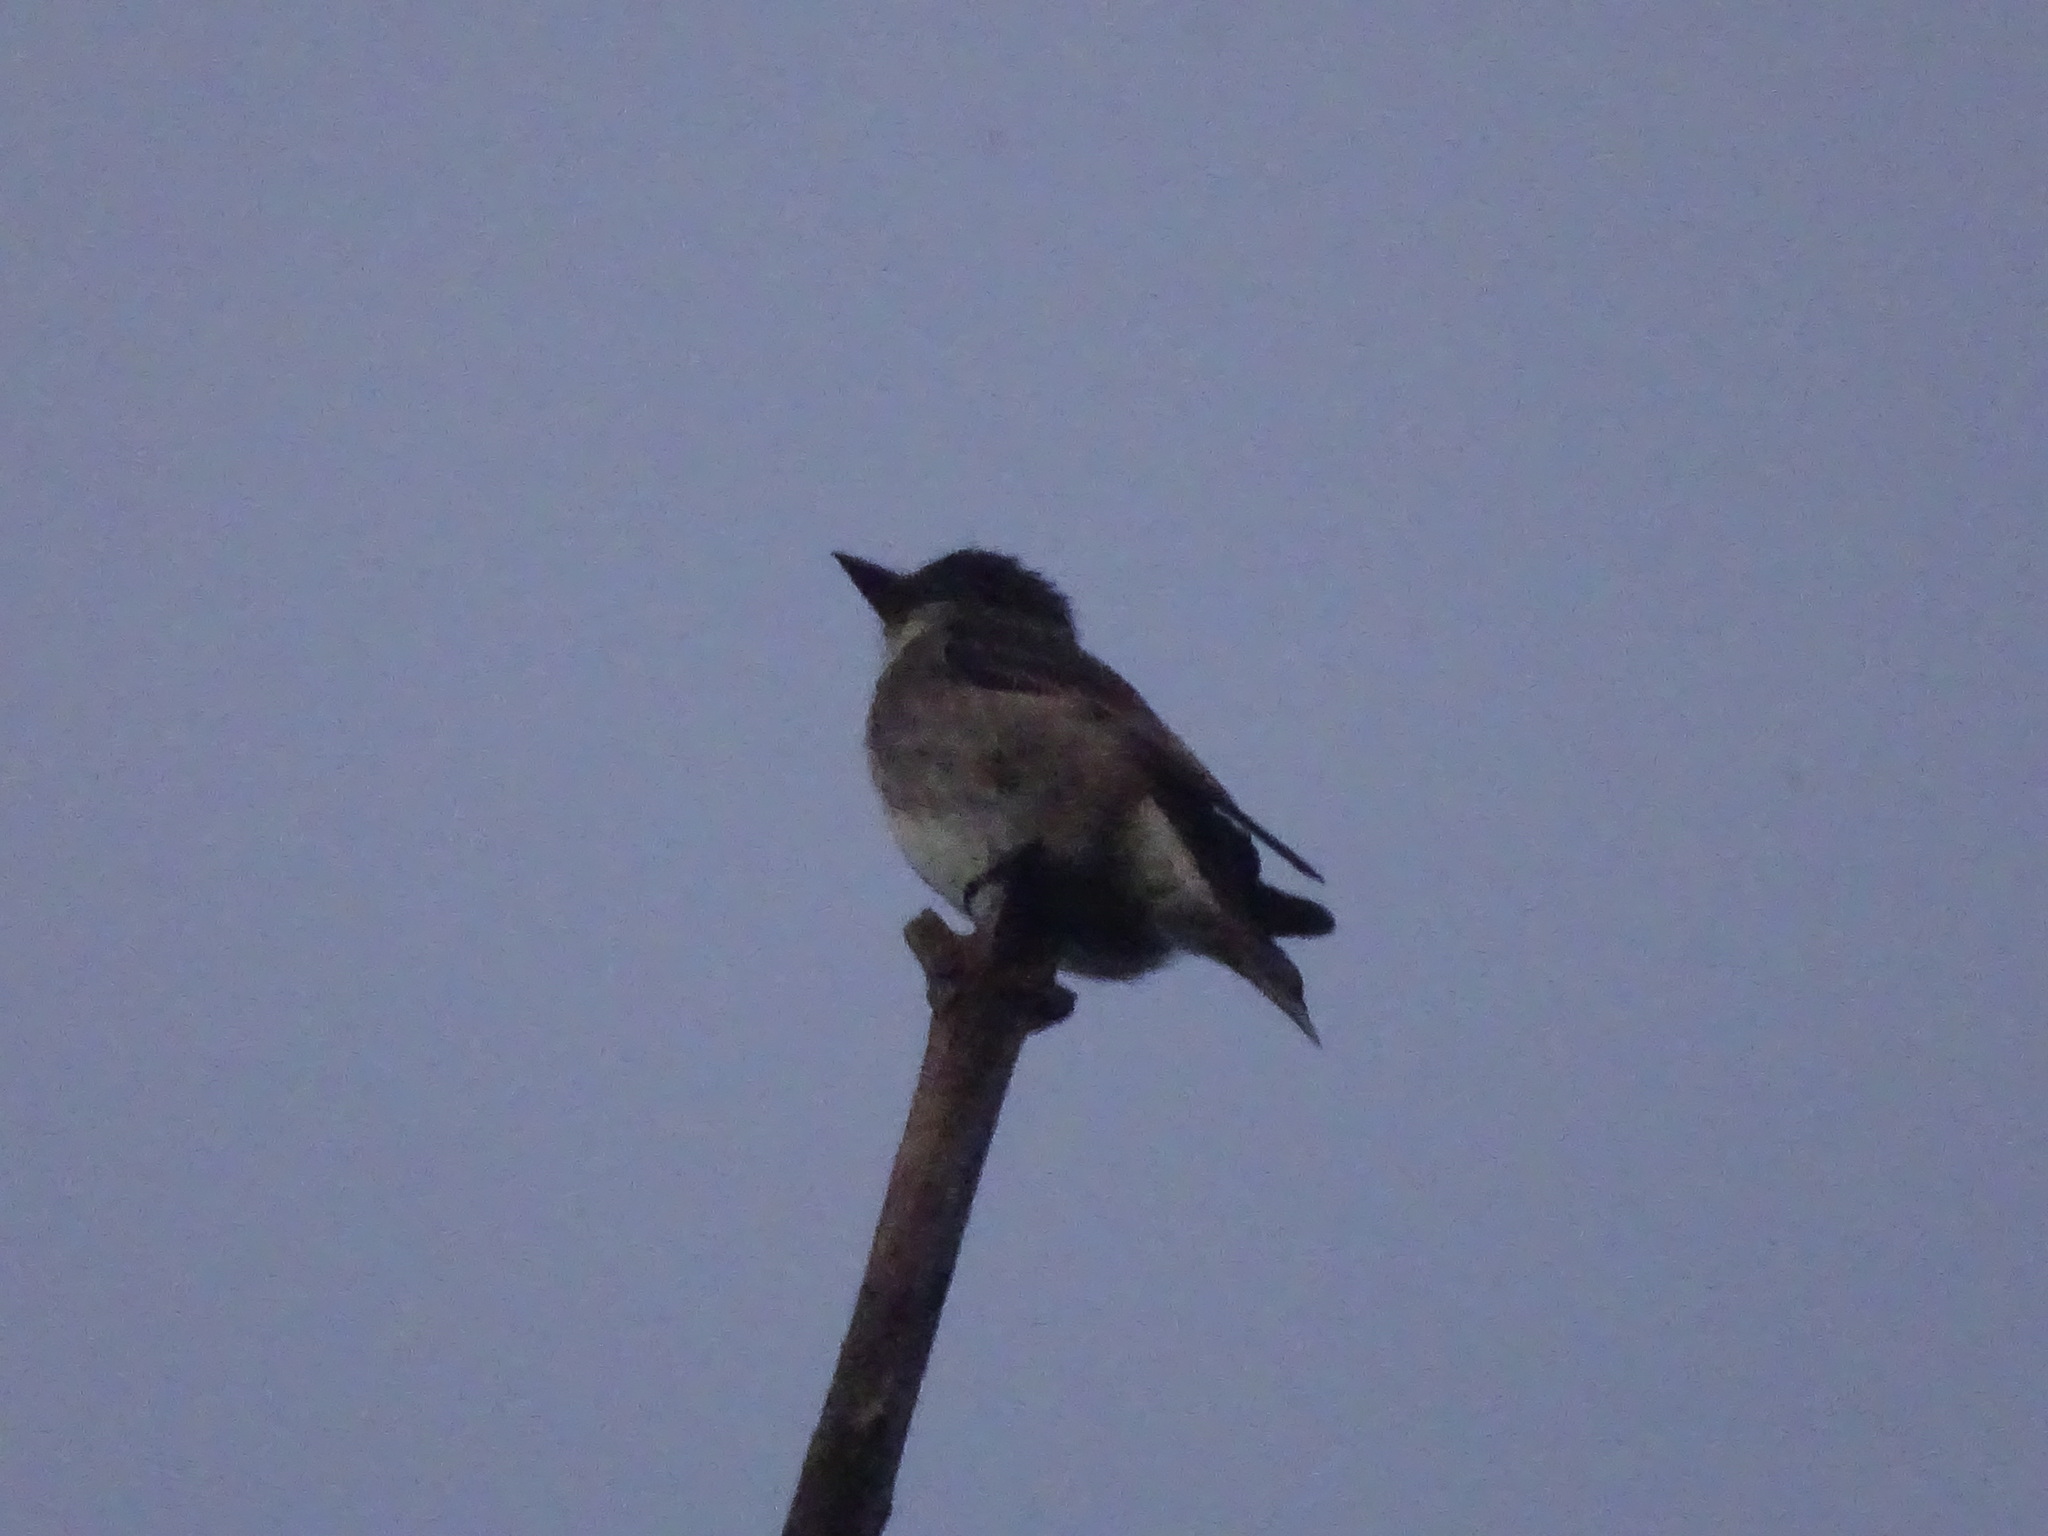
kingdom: Animalia
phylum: Chordata
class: Aves
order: Passeriformes
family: Tyrannidae
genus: Contopus
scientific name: Contopus cooperi
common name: Olive-sided flycatcher
